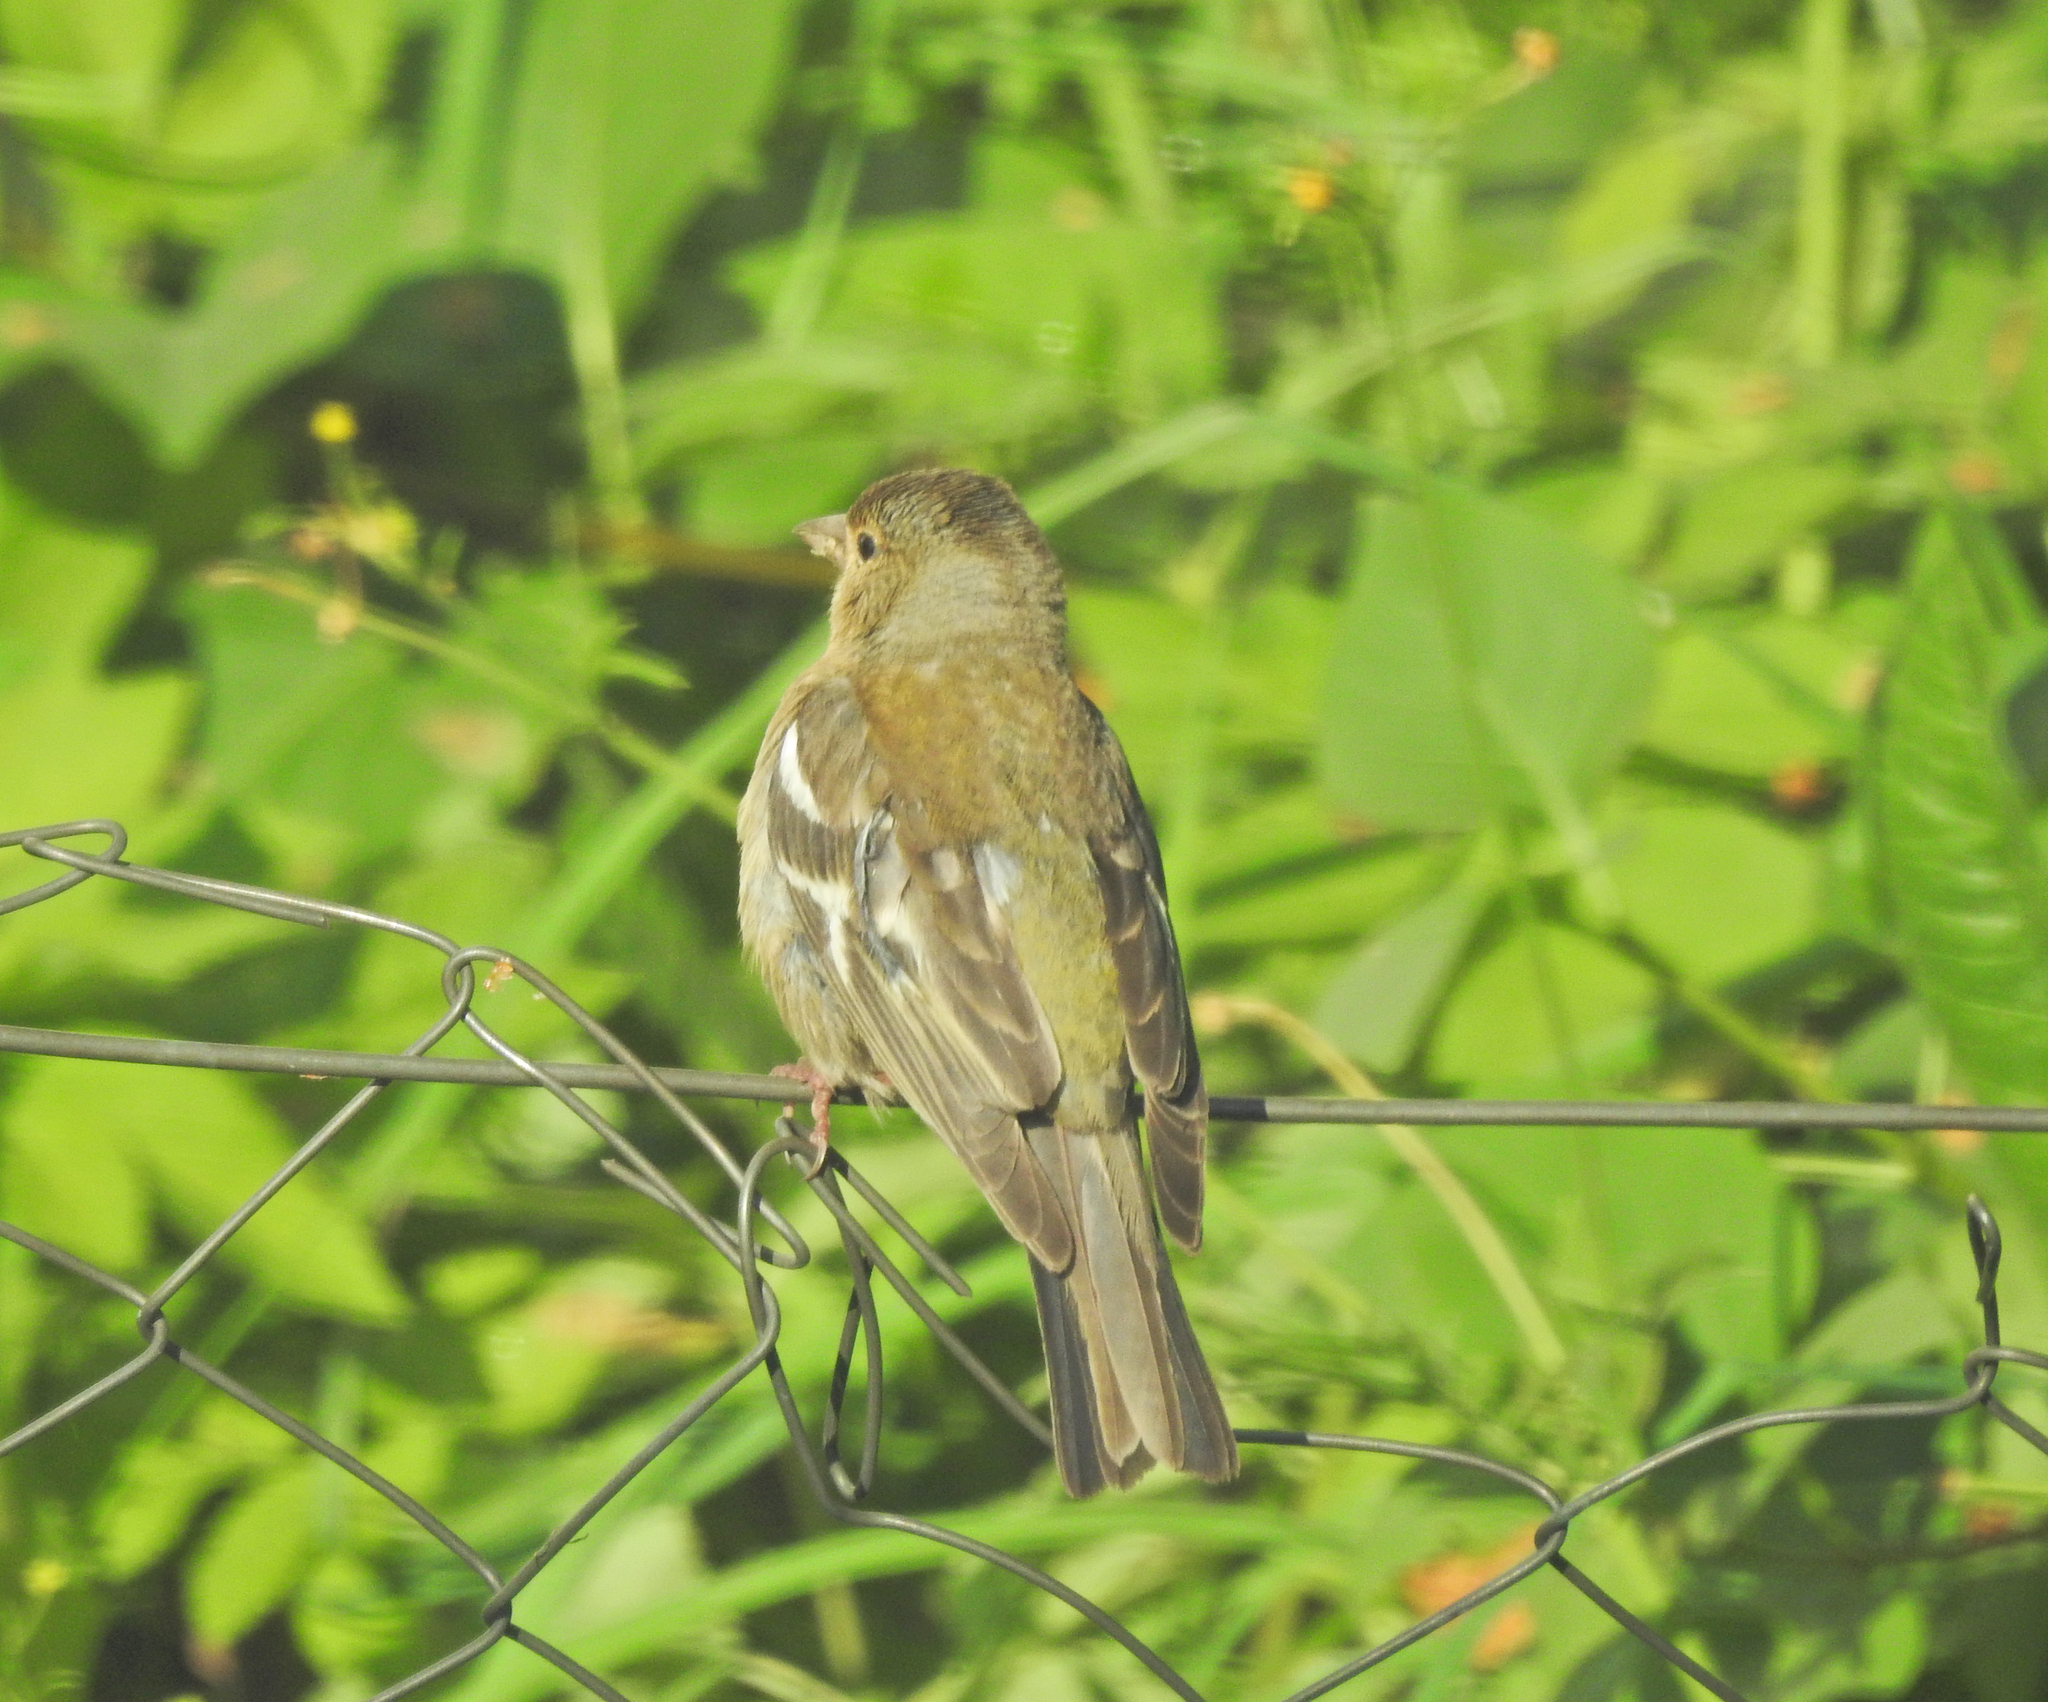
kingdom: Animalia
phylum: Chordata
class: Aves
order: Passeriformes
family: Fringillidae
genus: Fringilla
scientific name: Fringilla coelebs
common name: Common chaffinch
